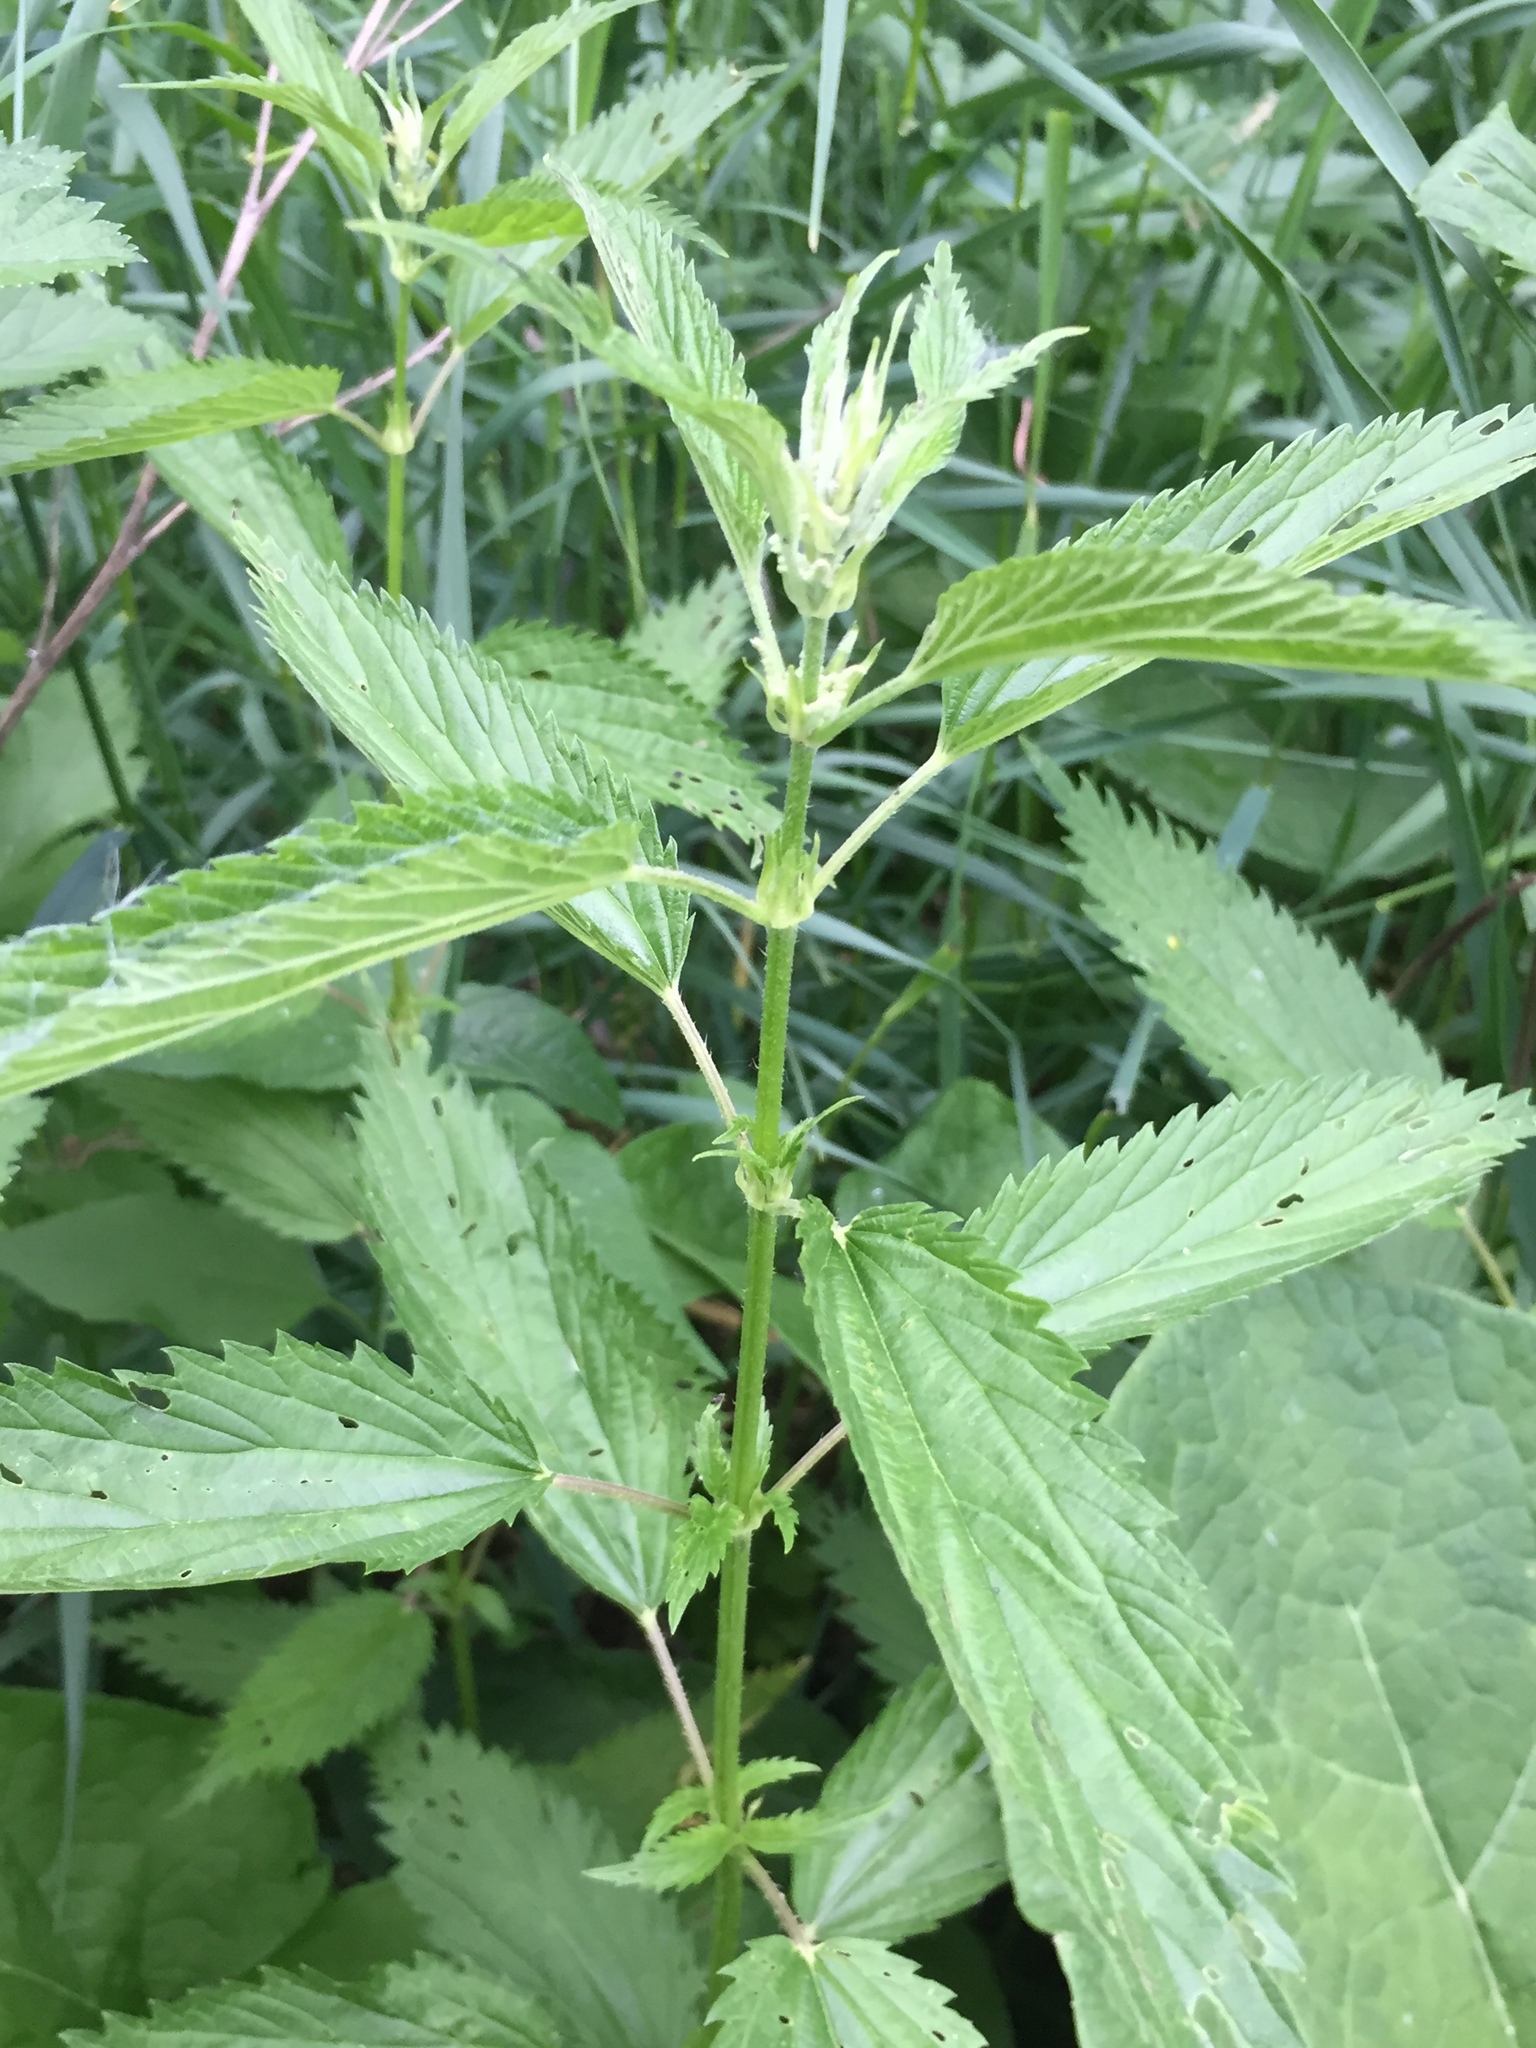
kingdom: Plantae
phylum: Tracheophyta
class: Magnoliopsida
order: Rosales
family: Urticaceae
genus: Urtica
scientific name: Urtica gracilis
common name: Slender stinging nettle
